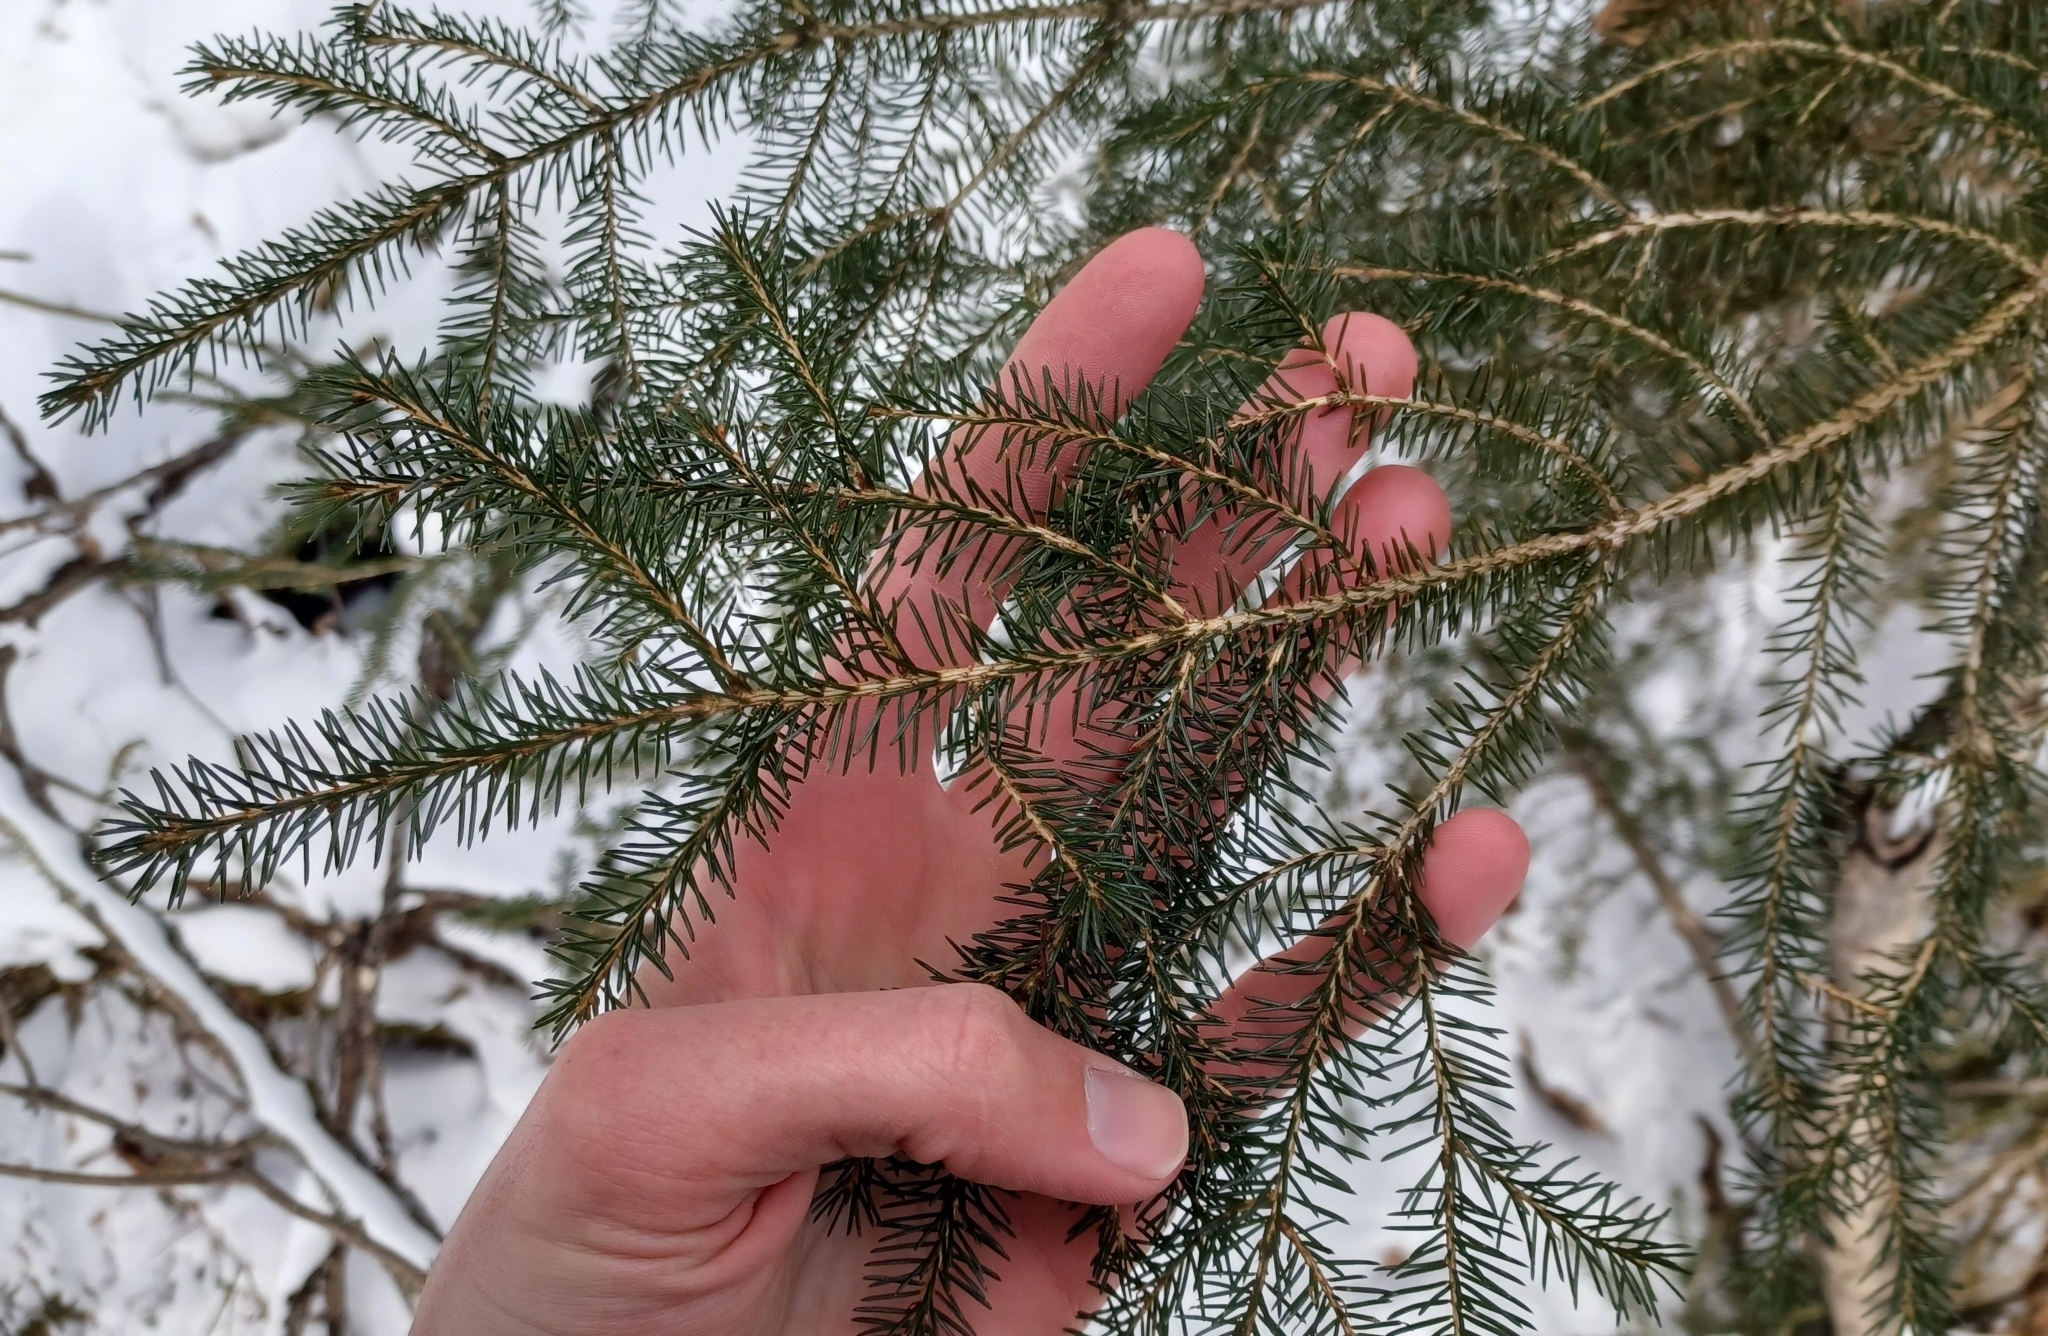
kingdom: Plantae
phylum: Tracheophyta
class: Pinopsida
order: Pinales
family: Pinaceae
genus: Picea
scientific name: Picea rubens
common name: Red spruce
